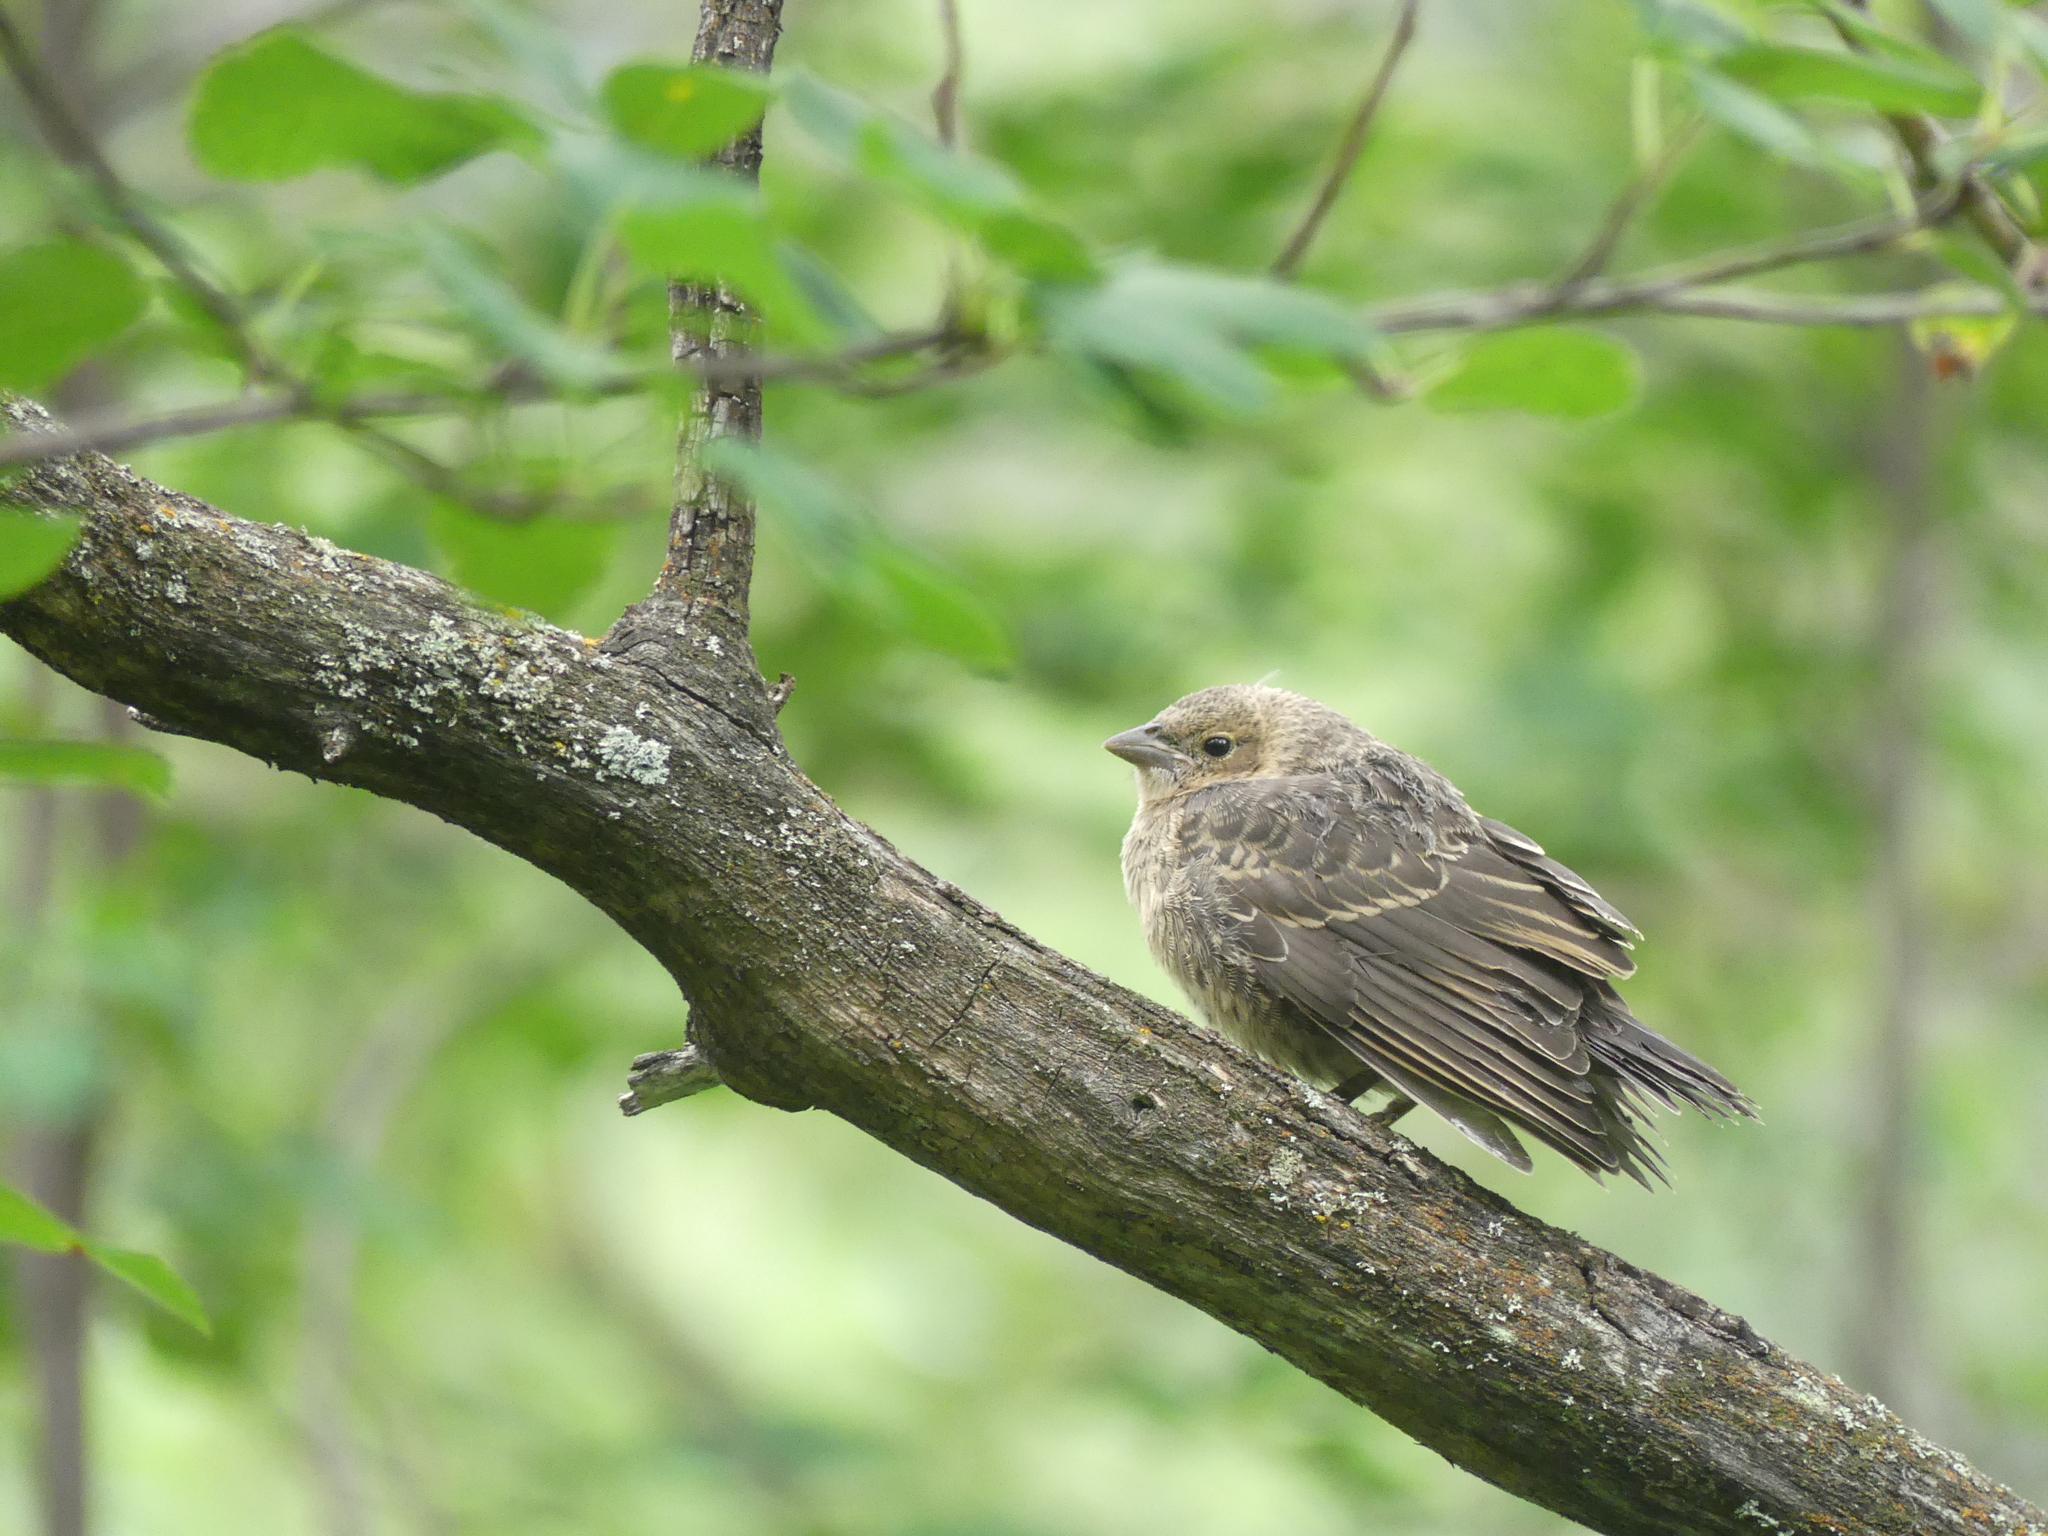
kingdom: Animalia
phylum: Chordata
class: Aves
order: Passeriformes
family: Icteridae
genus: Molothrus
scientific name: Molothrus ater
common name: Brown-headed cowbird
